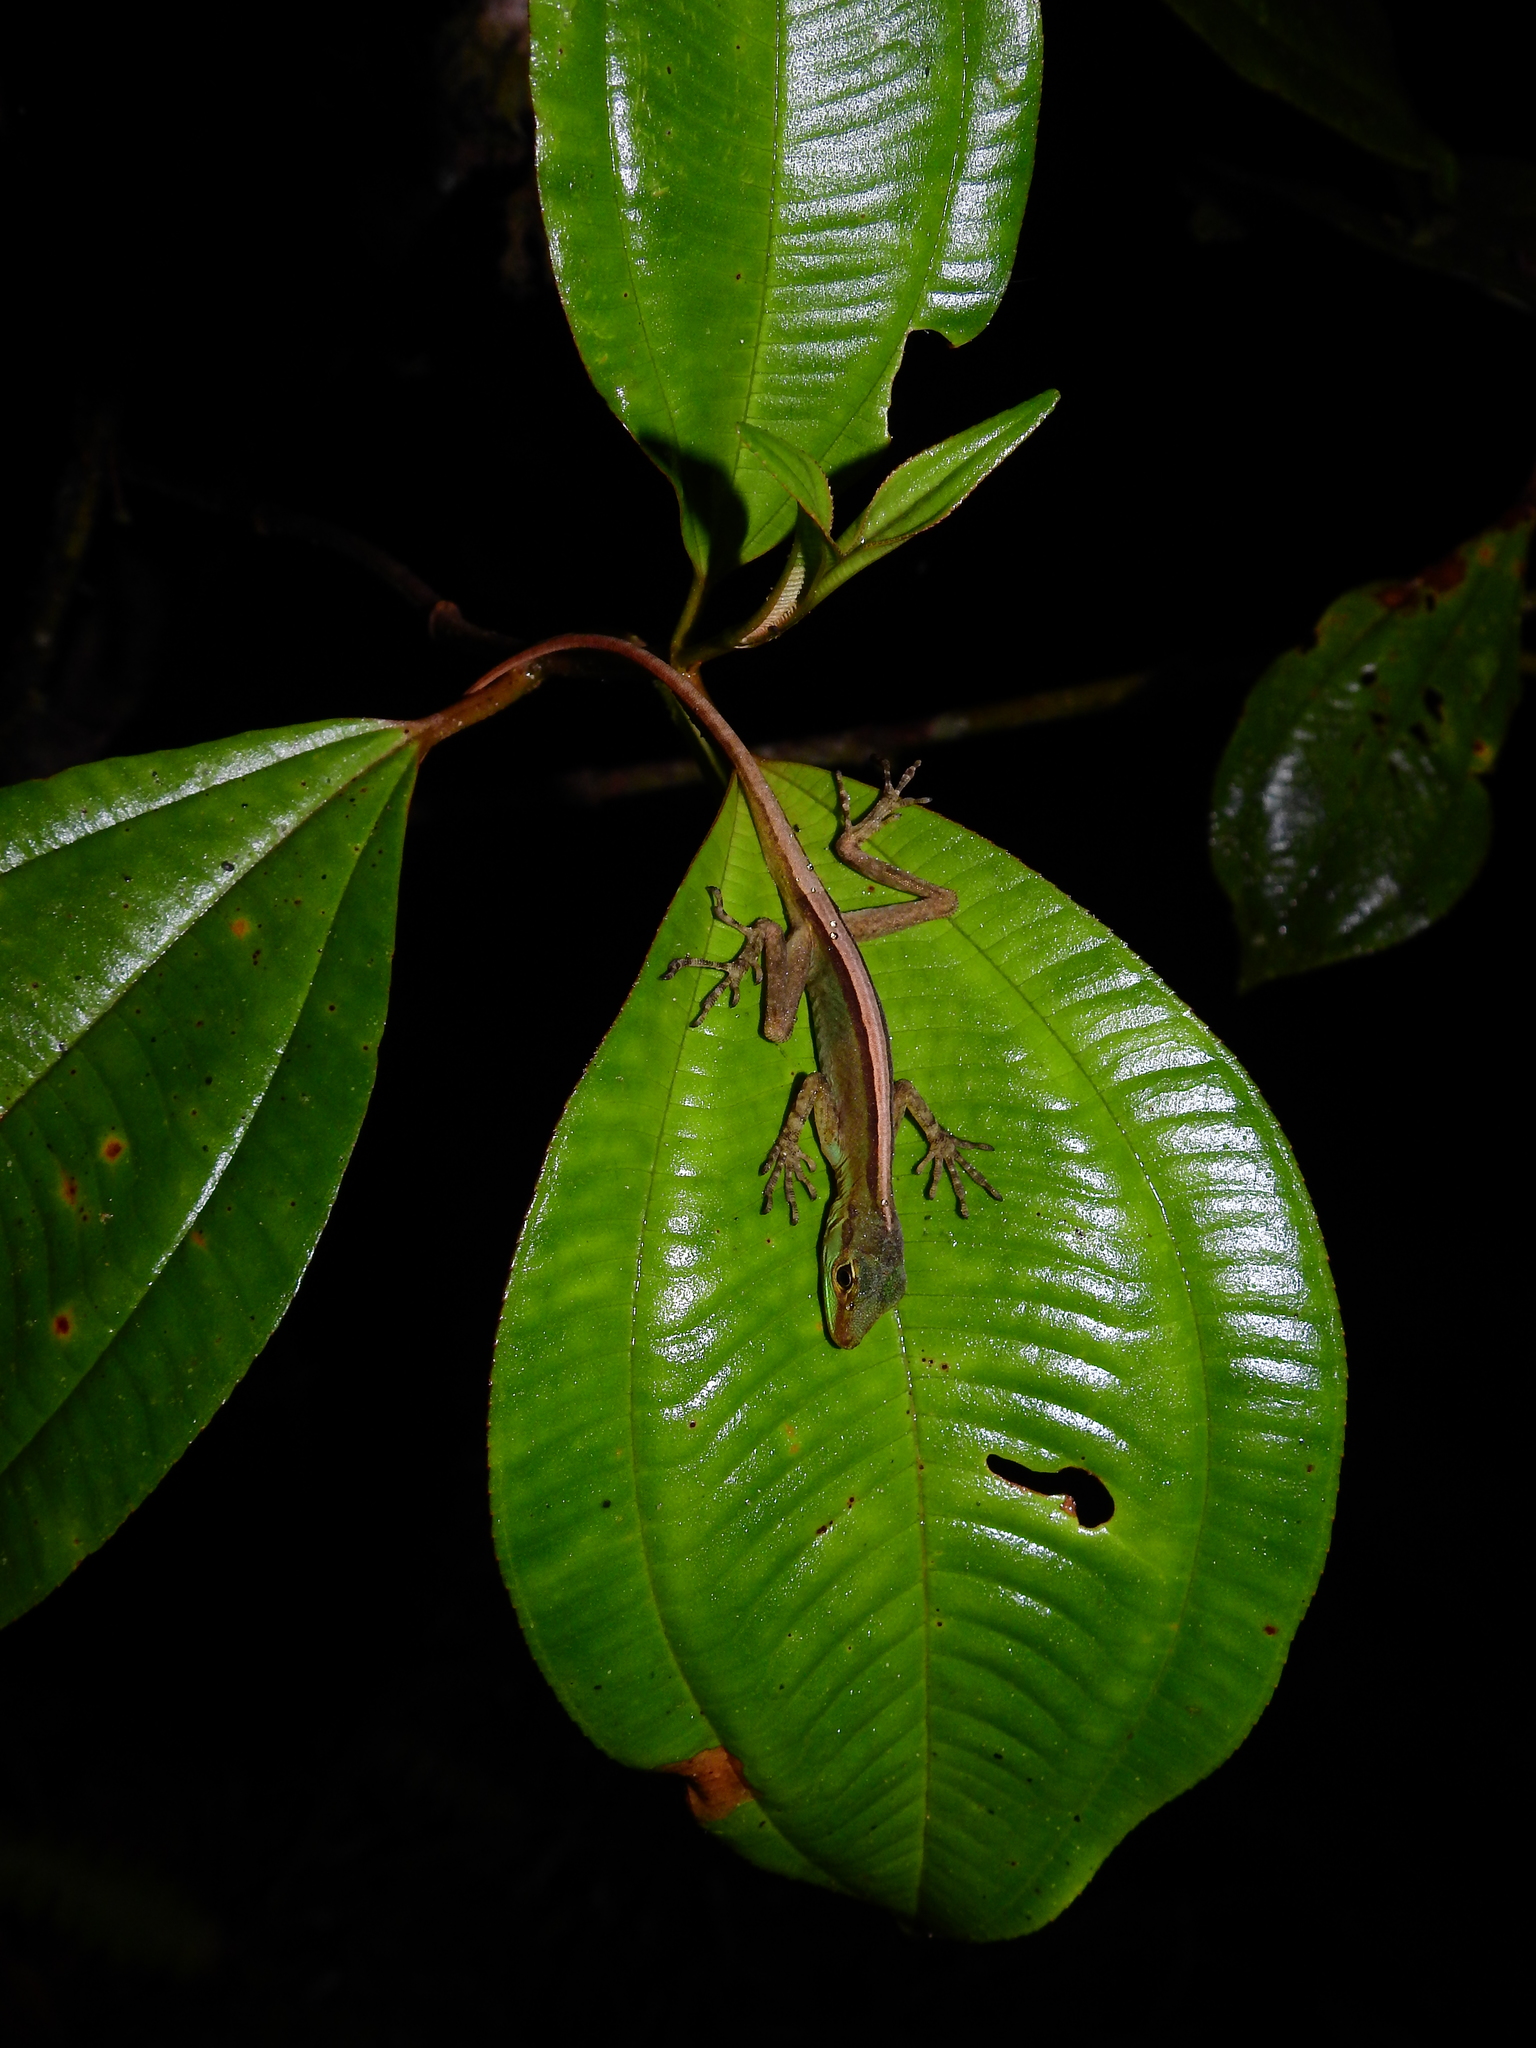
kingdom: Animalia
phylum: Chordata
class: Squamata
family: Dactyloidae
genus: Anolis
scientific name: Anolis ventrimaculatus
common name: Speckled anole
